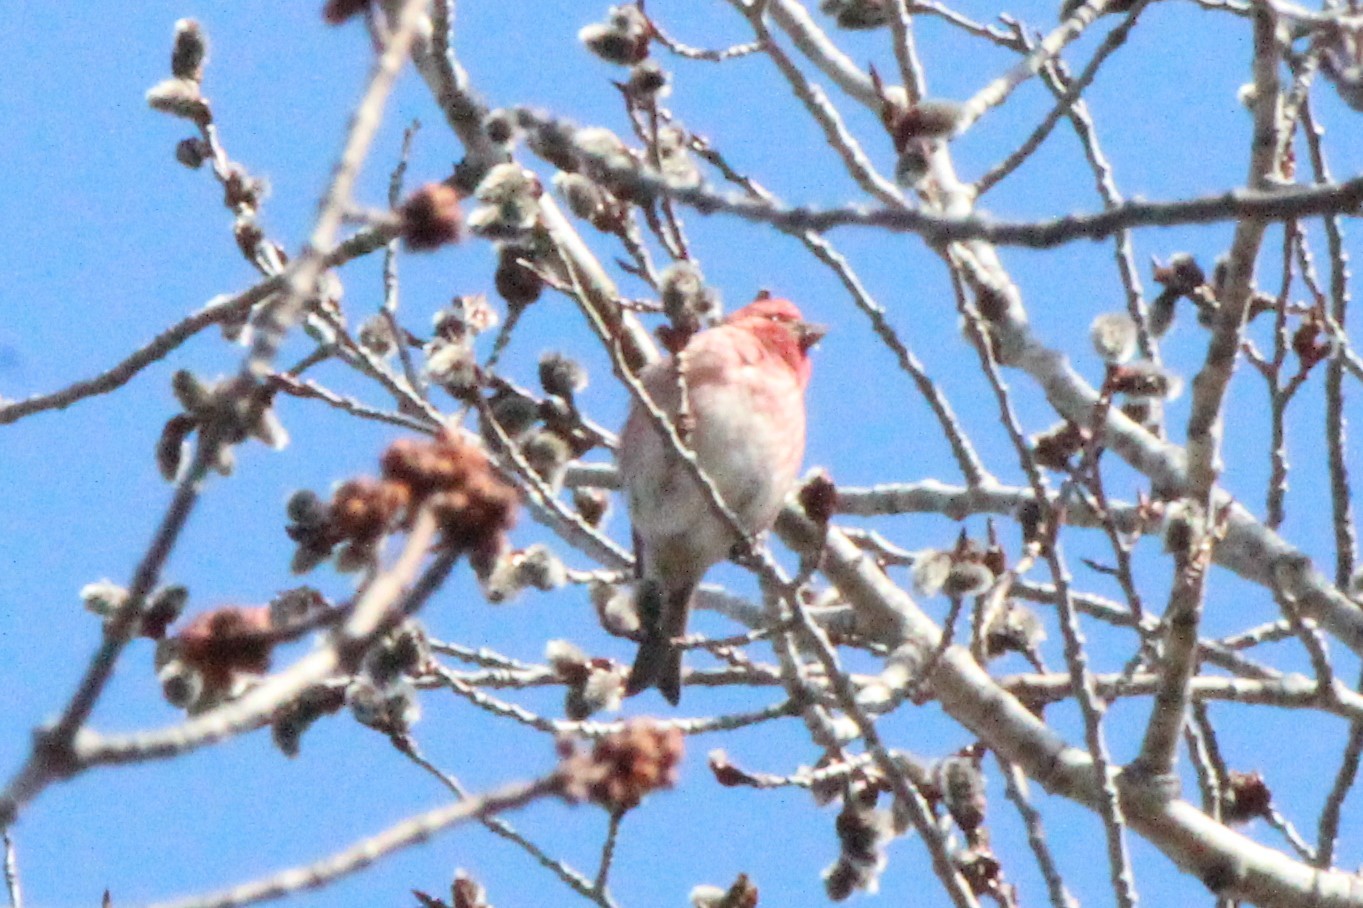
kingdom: Animalia
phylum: Chordata
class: Aves
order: Passeriformes
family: Fringillidae
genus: Haemorhous
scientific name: Haemorhous purpureus
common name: Purple finch
